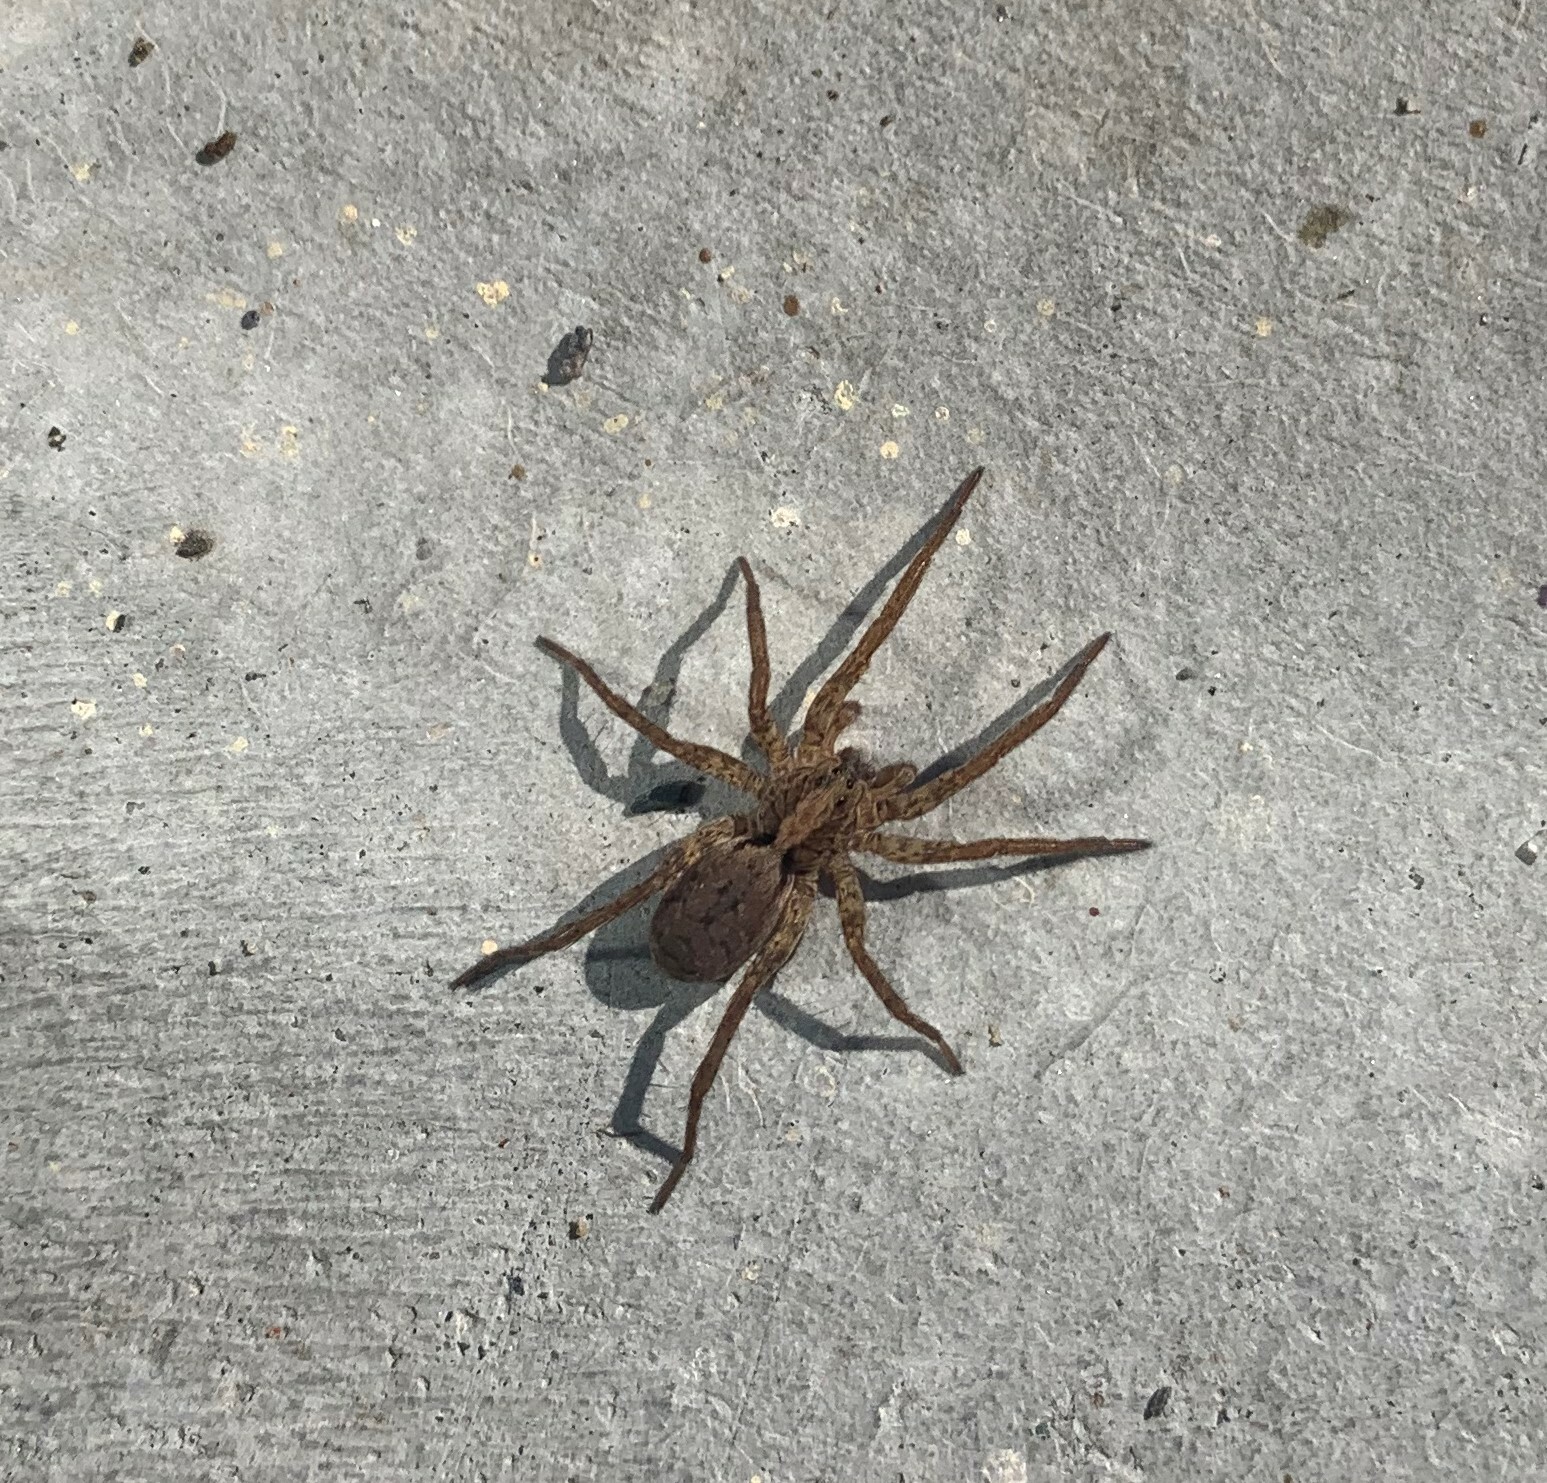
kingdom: Animalia
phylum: Arthropoda
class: Arachnida
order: Araneae
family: Lycosidae
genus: Gladicosa
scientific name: Gladicosa gulosa
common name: Drumming sword wolf spider
